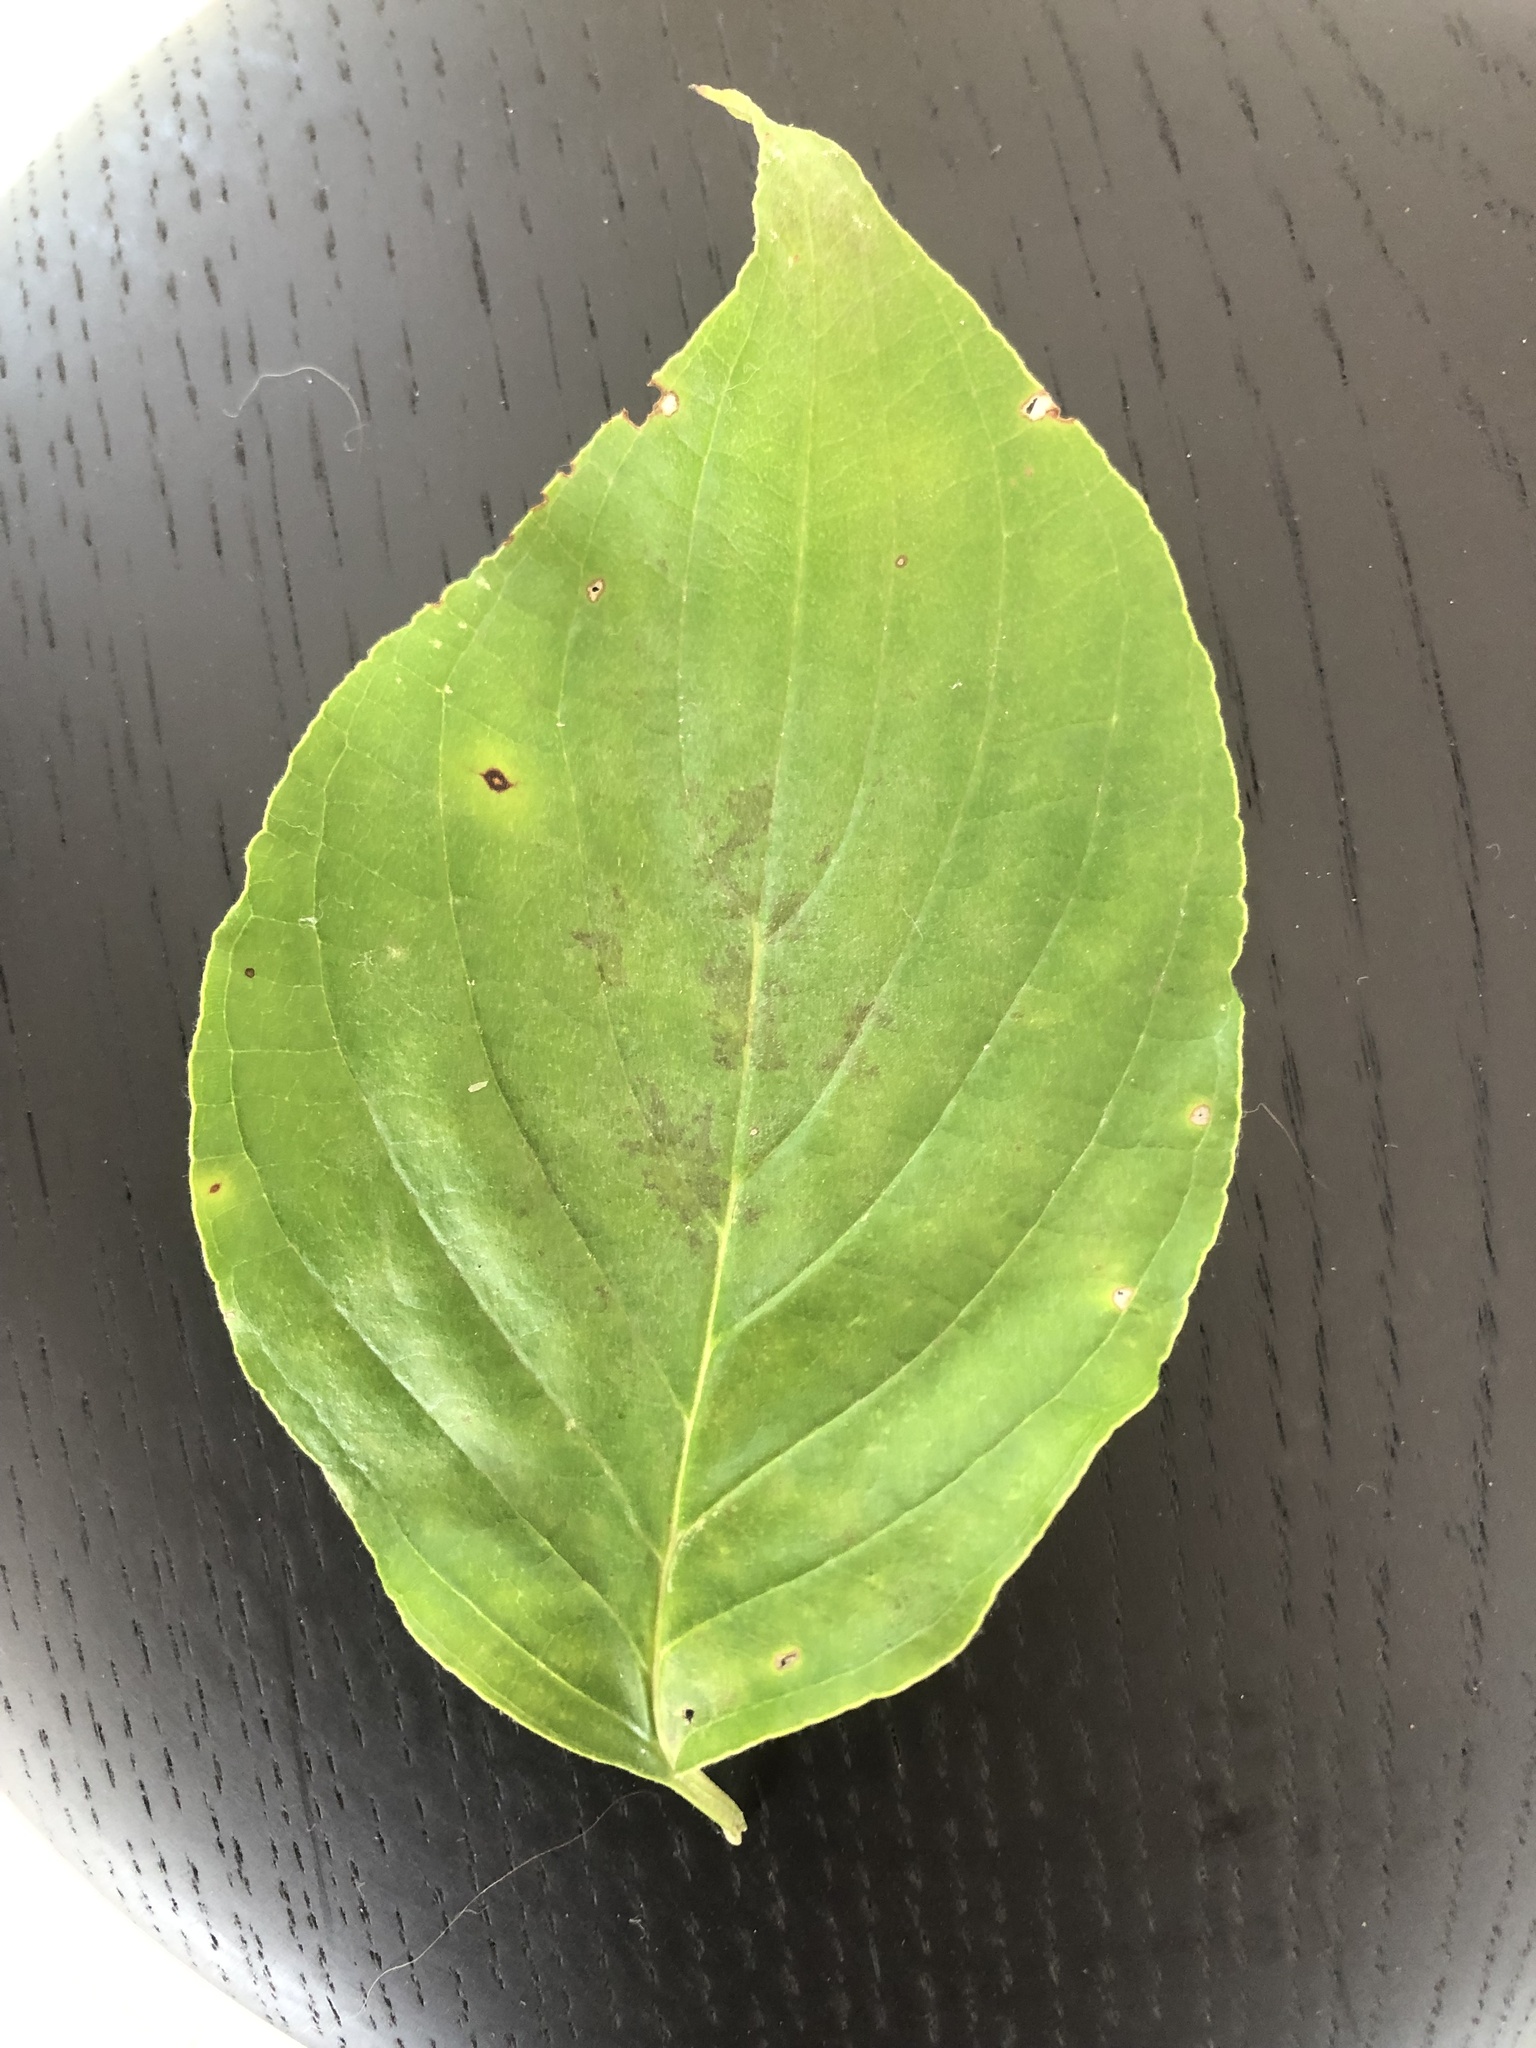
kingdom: Plantae
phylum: Tracheophyta
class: Magnoliopsida
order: Cornales
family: Cornaceae
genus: Cornus
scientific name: Cornus florida
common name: Flowering dogwood
